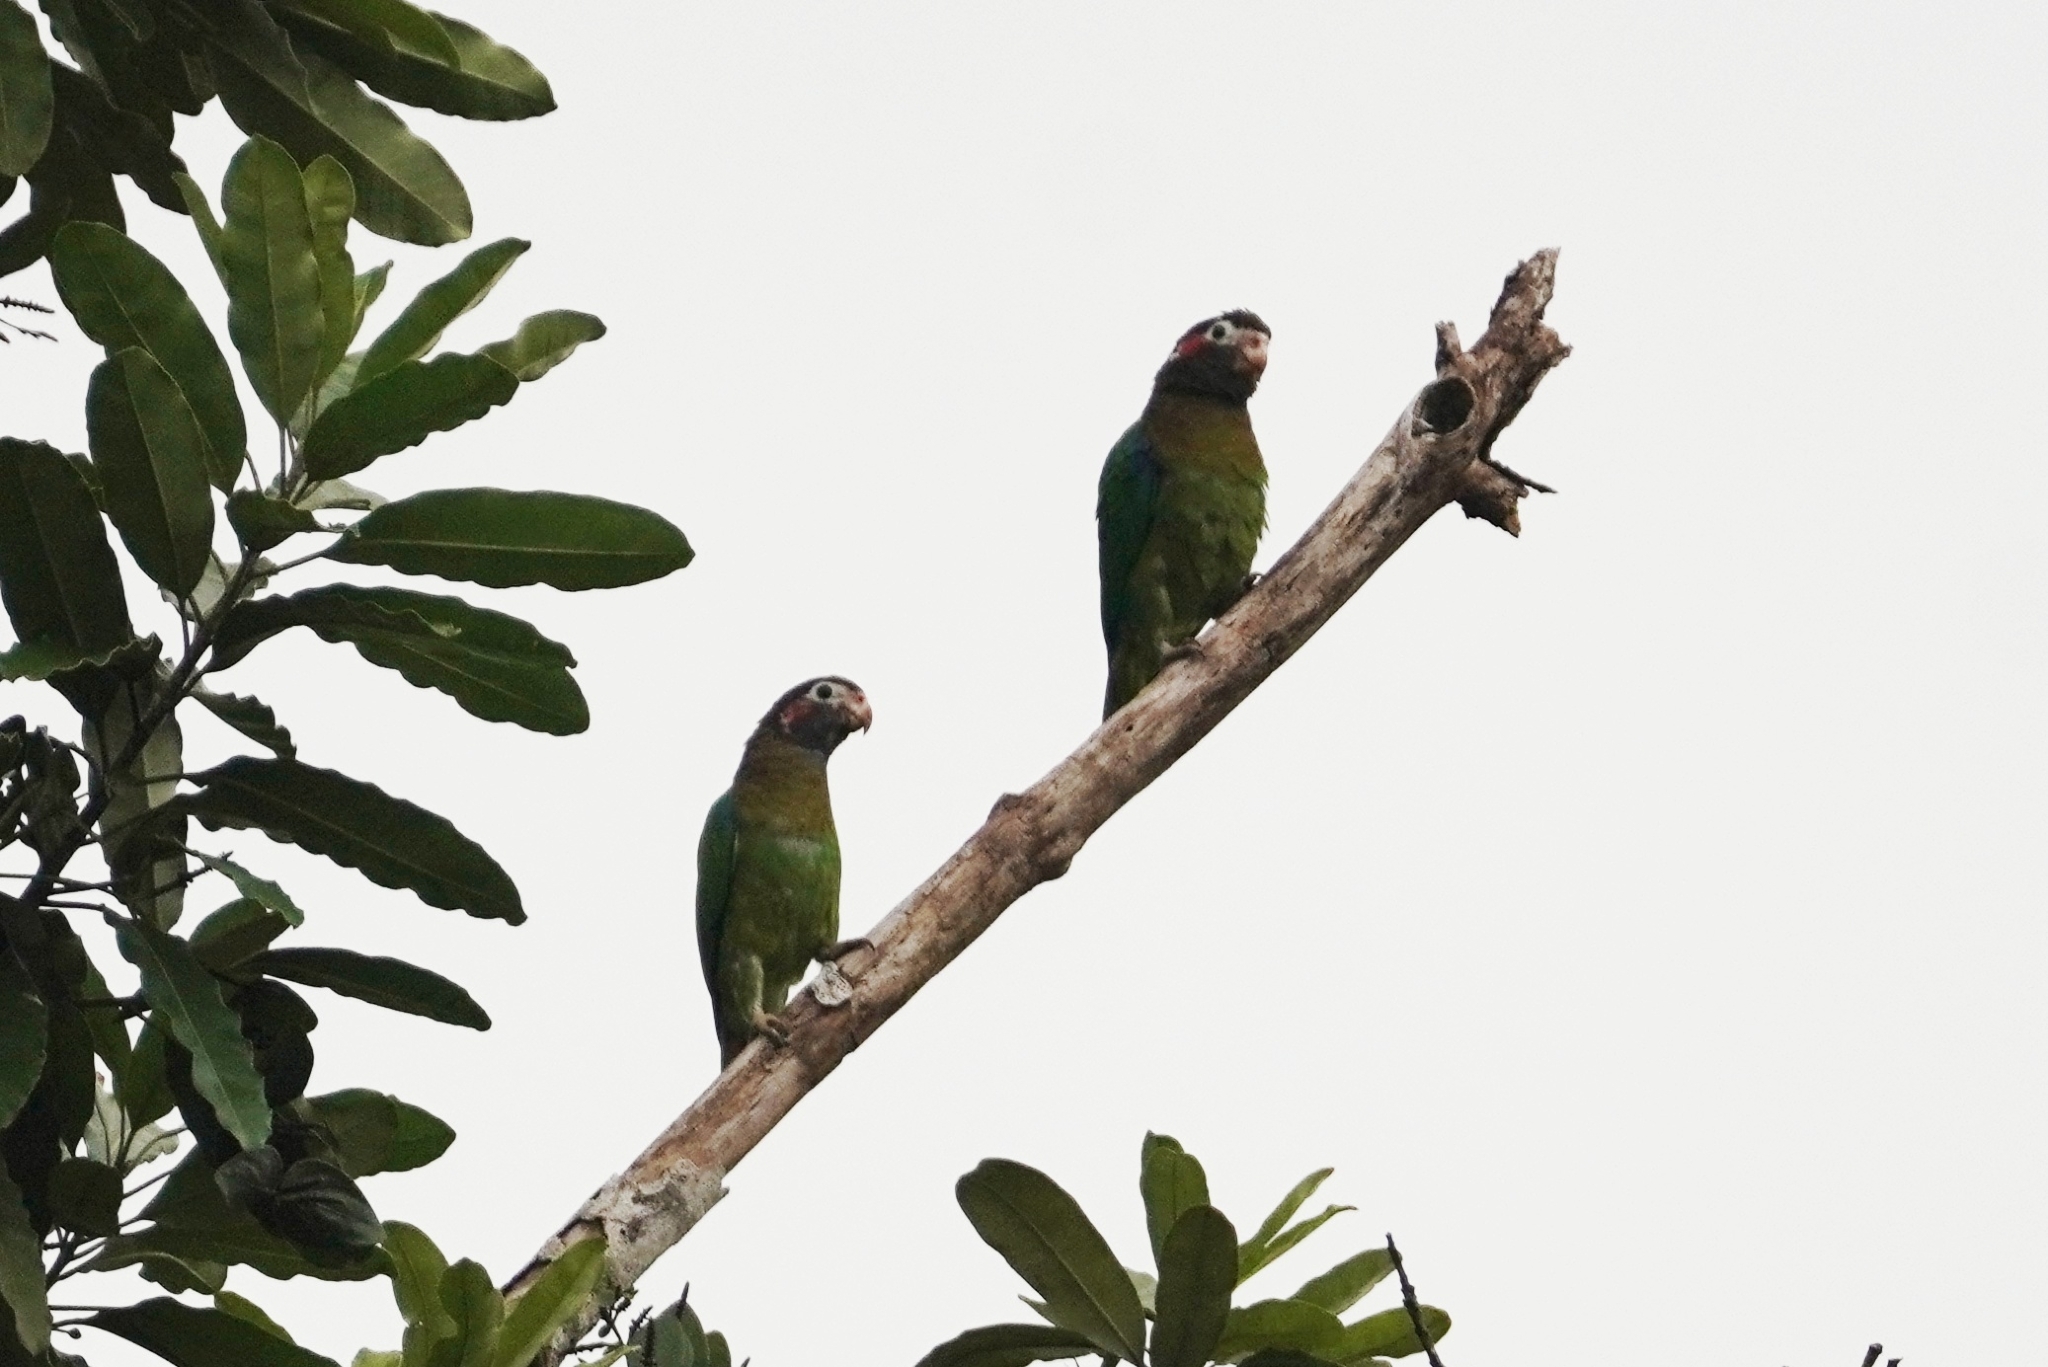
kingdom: Animalia
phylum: Chordata
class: Aves
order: Psittaciformes
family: Psittacidae
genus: Pionopsitta
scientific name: Pionopsitta haematotis
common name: Brown-hooded parrot
